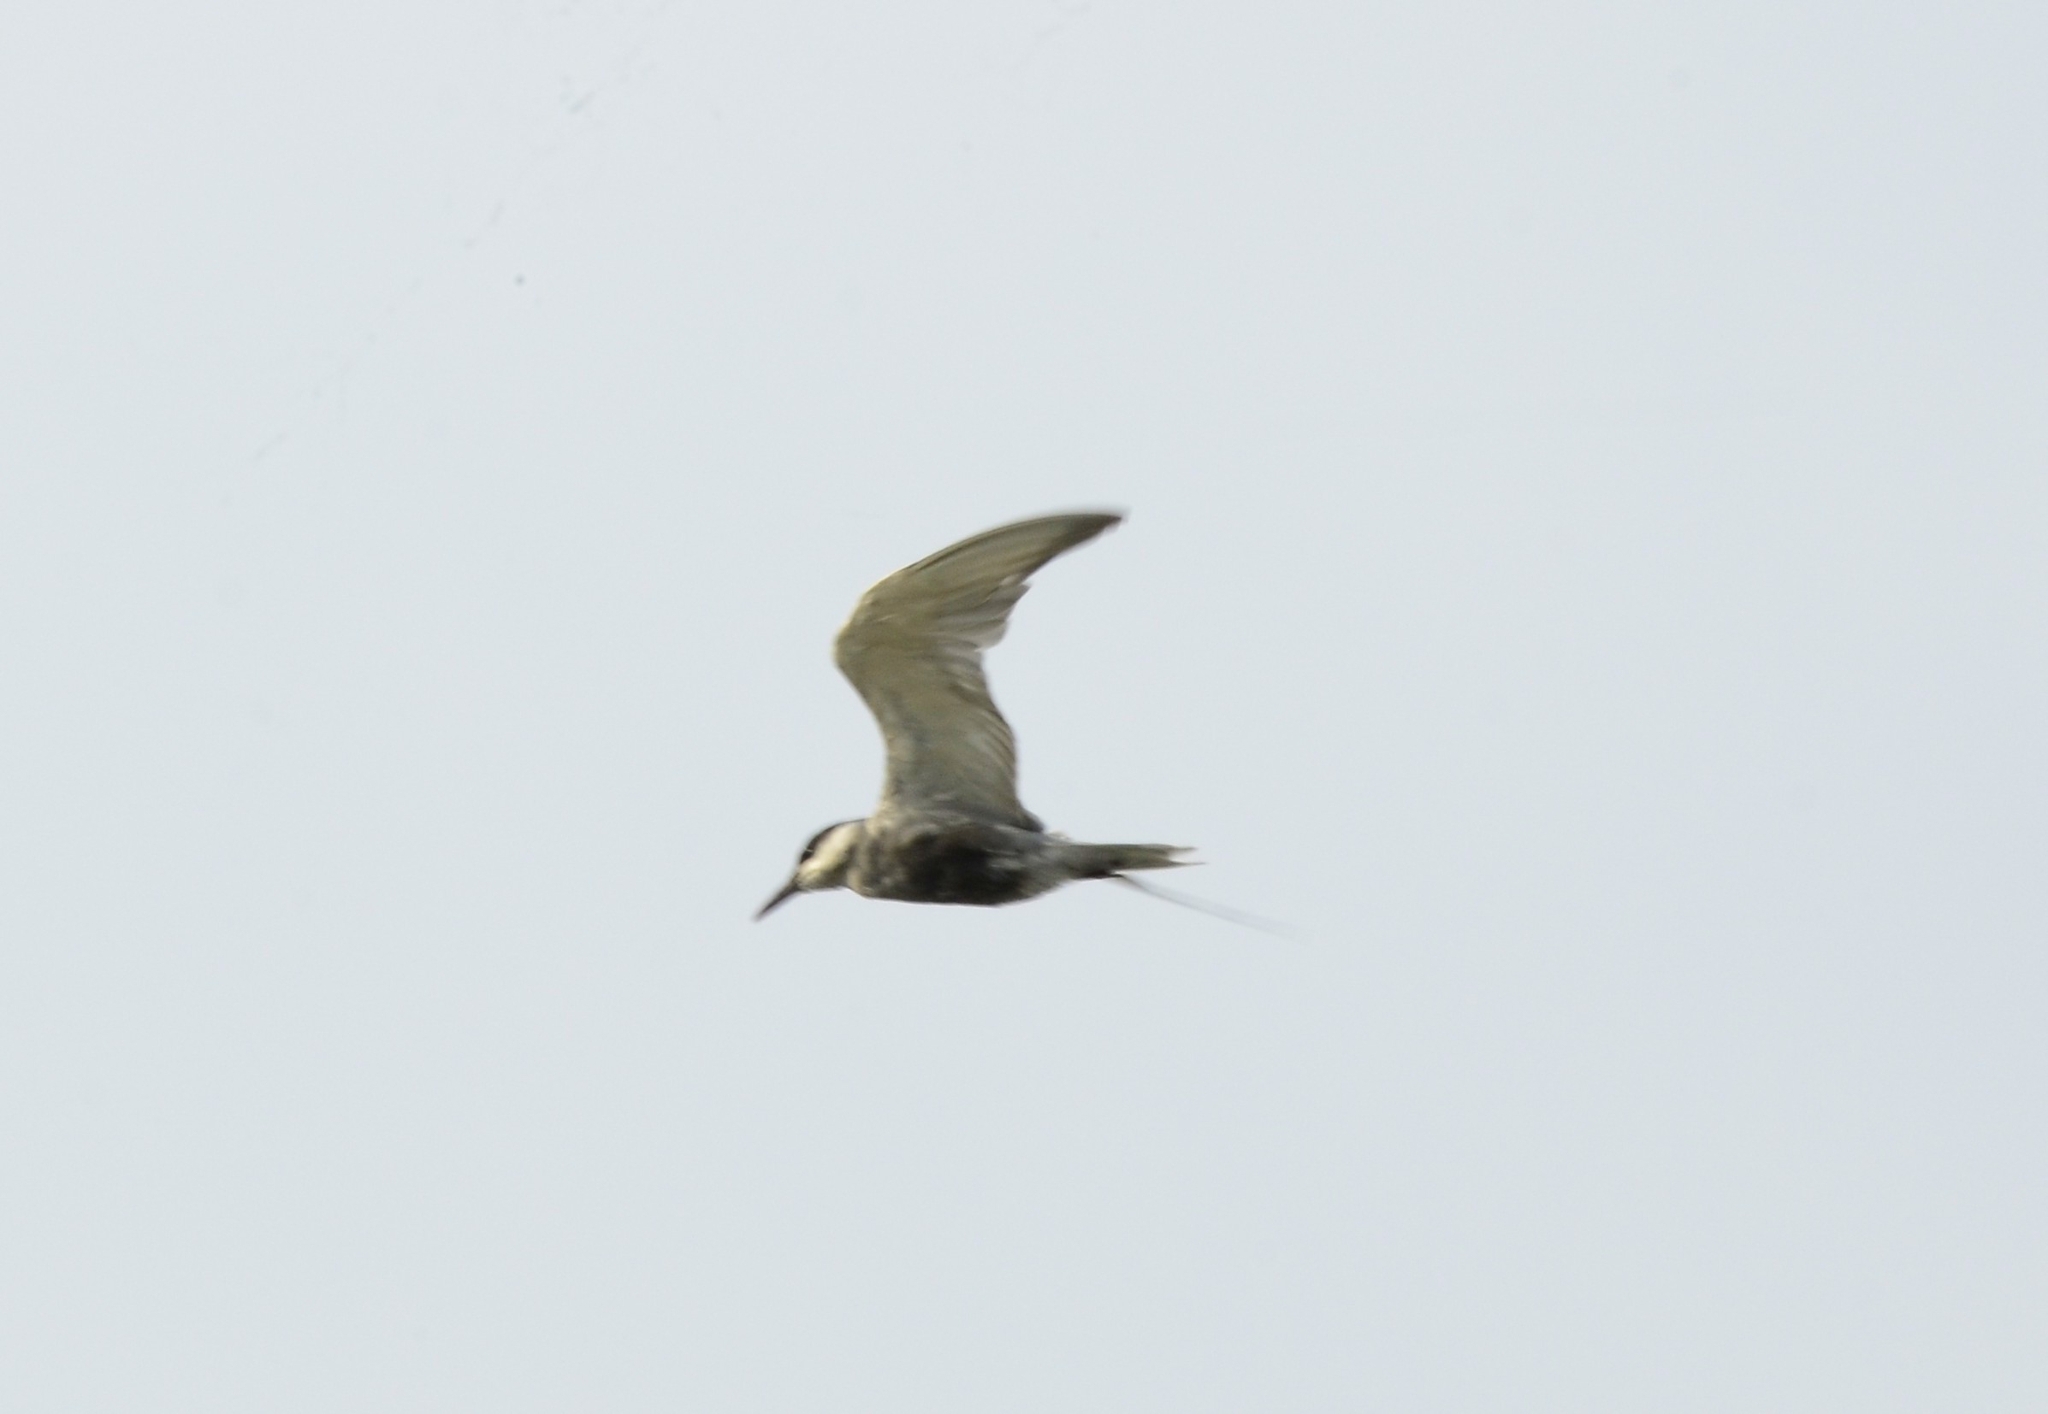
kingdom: Animalia
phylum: Chordata
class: Aves
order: Charadriiformes
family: Laridae
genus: Chlidonias
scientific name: Chlidonias hybrida
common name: Whiskered tern
